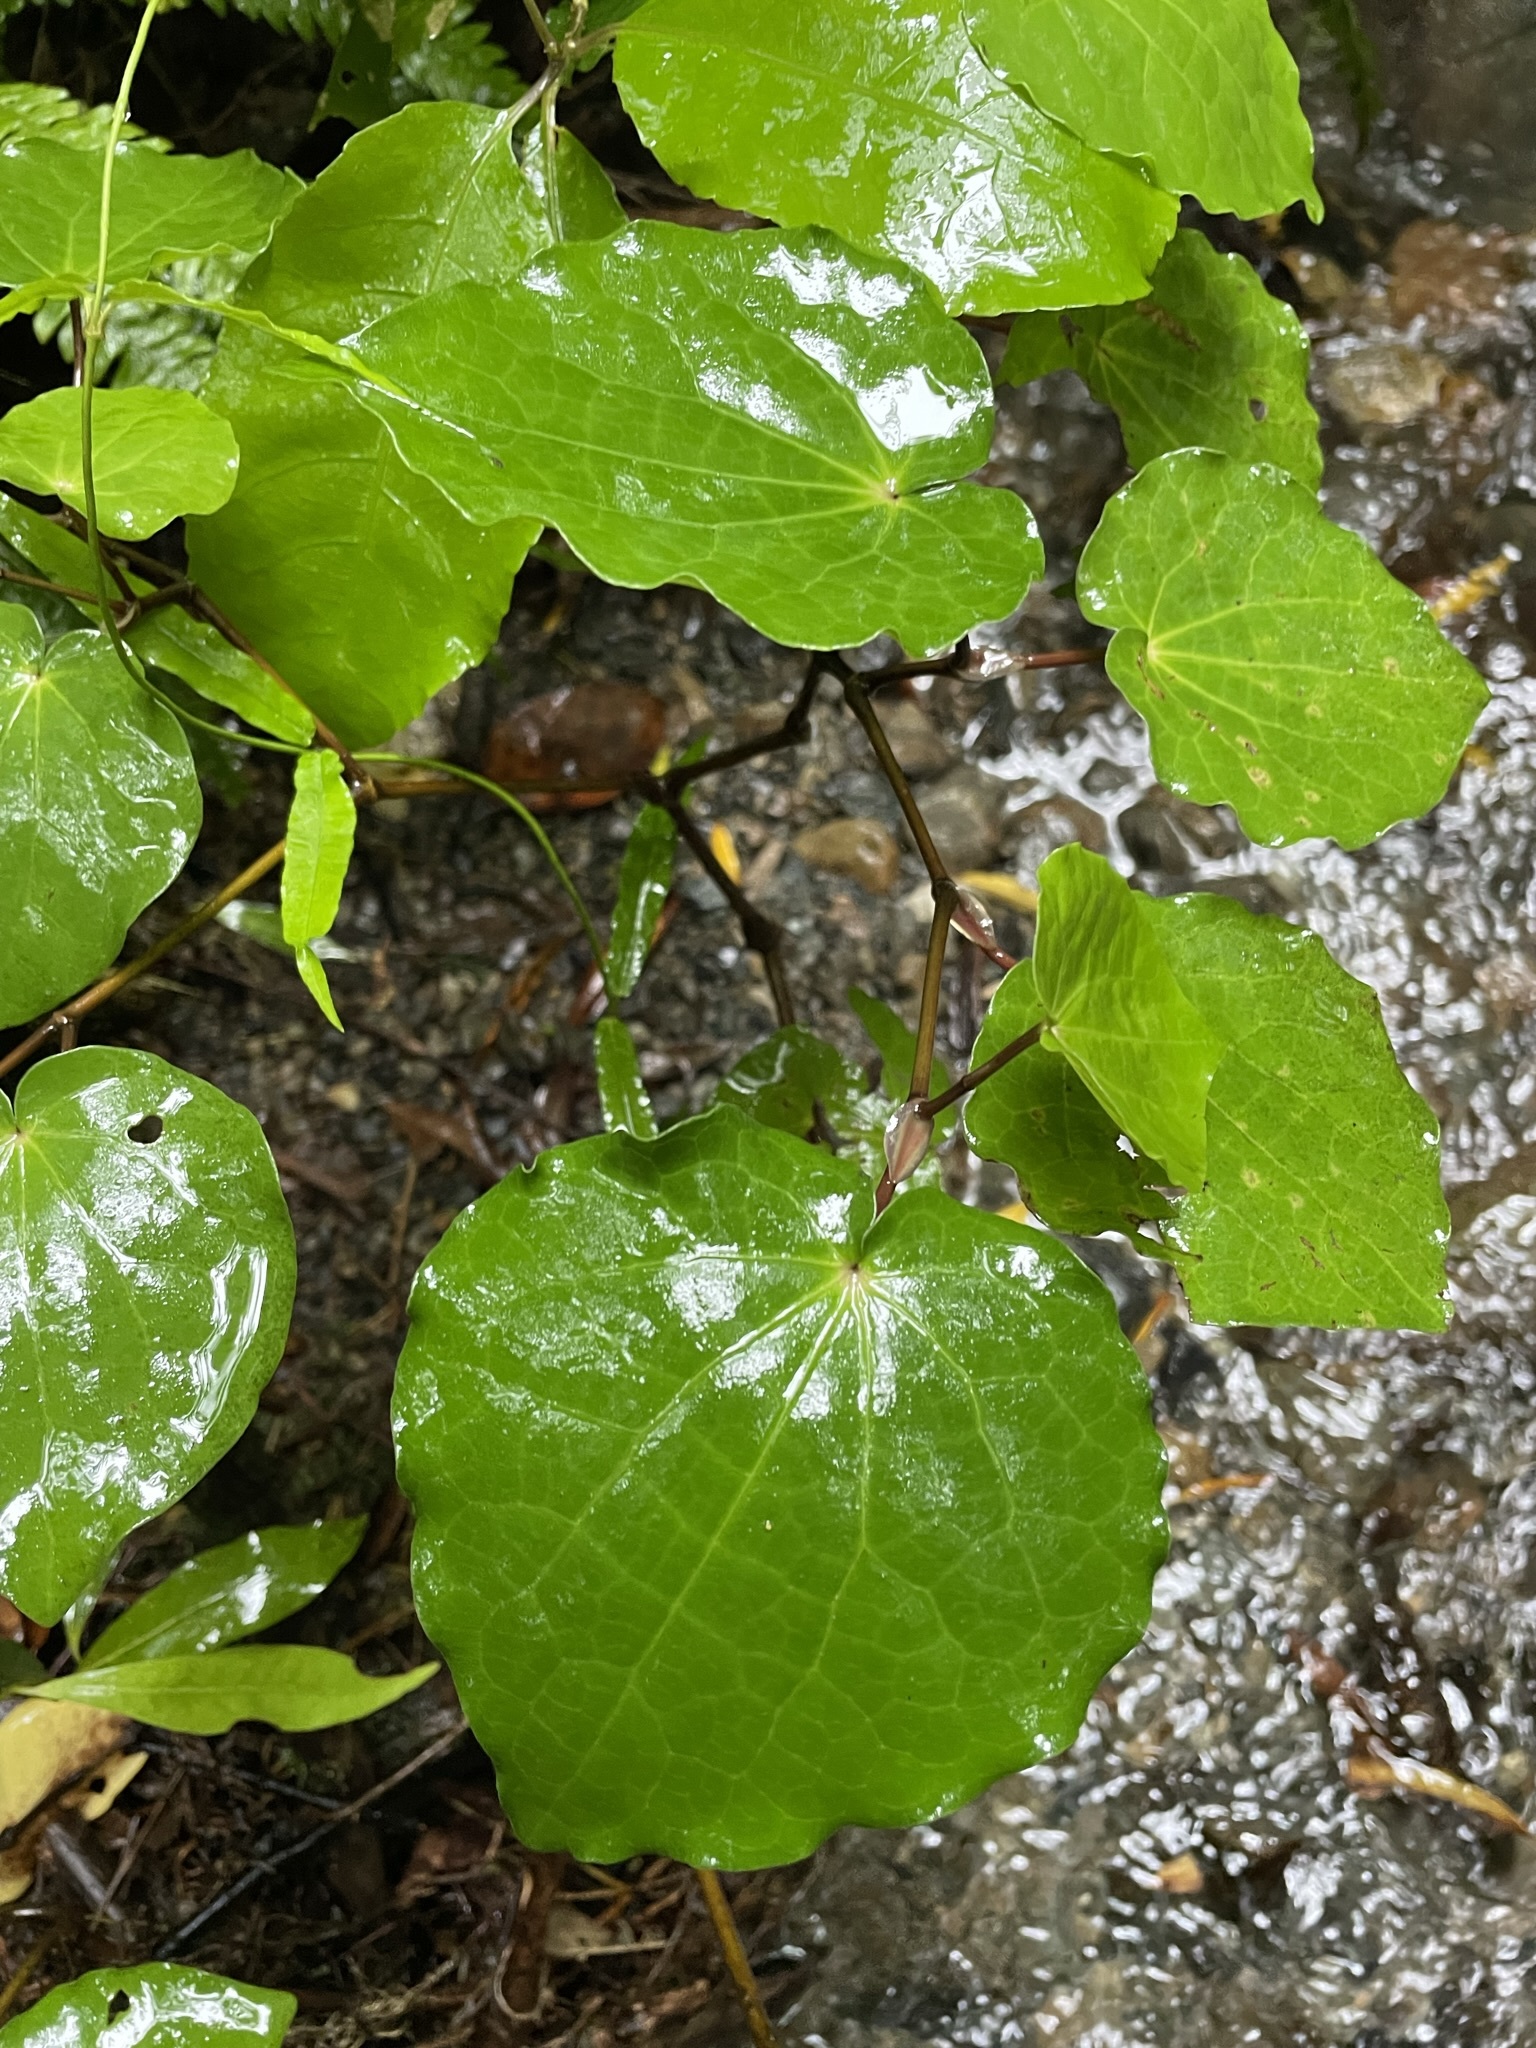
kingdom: Plantae
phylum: Tracheophyta
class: Magnoliopsida
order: Piperales
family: Piperaceae
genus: Macropiper
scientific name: Macropiper excelsum
